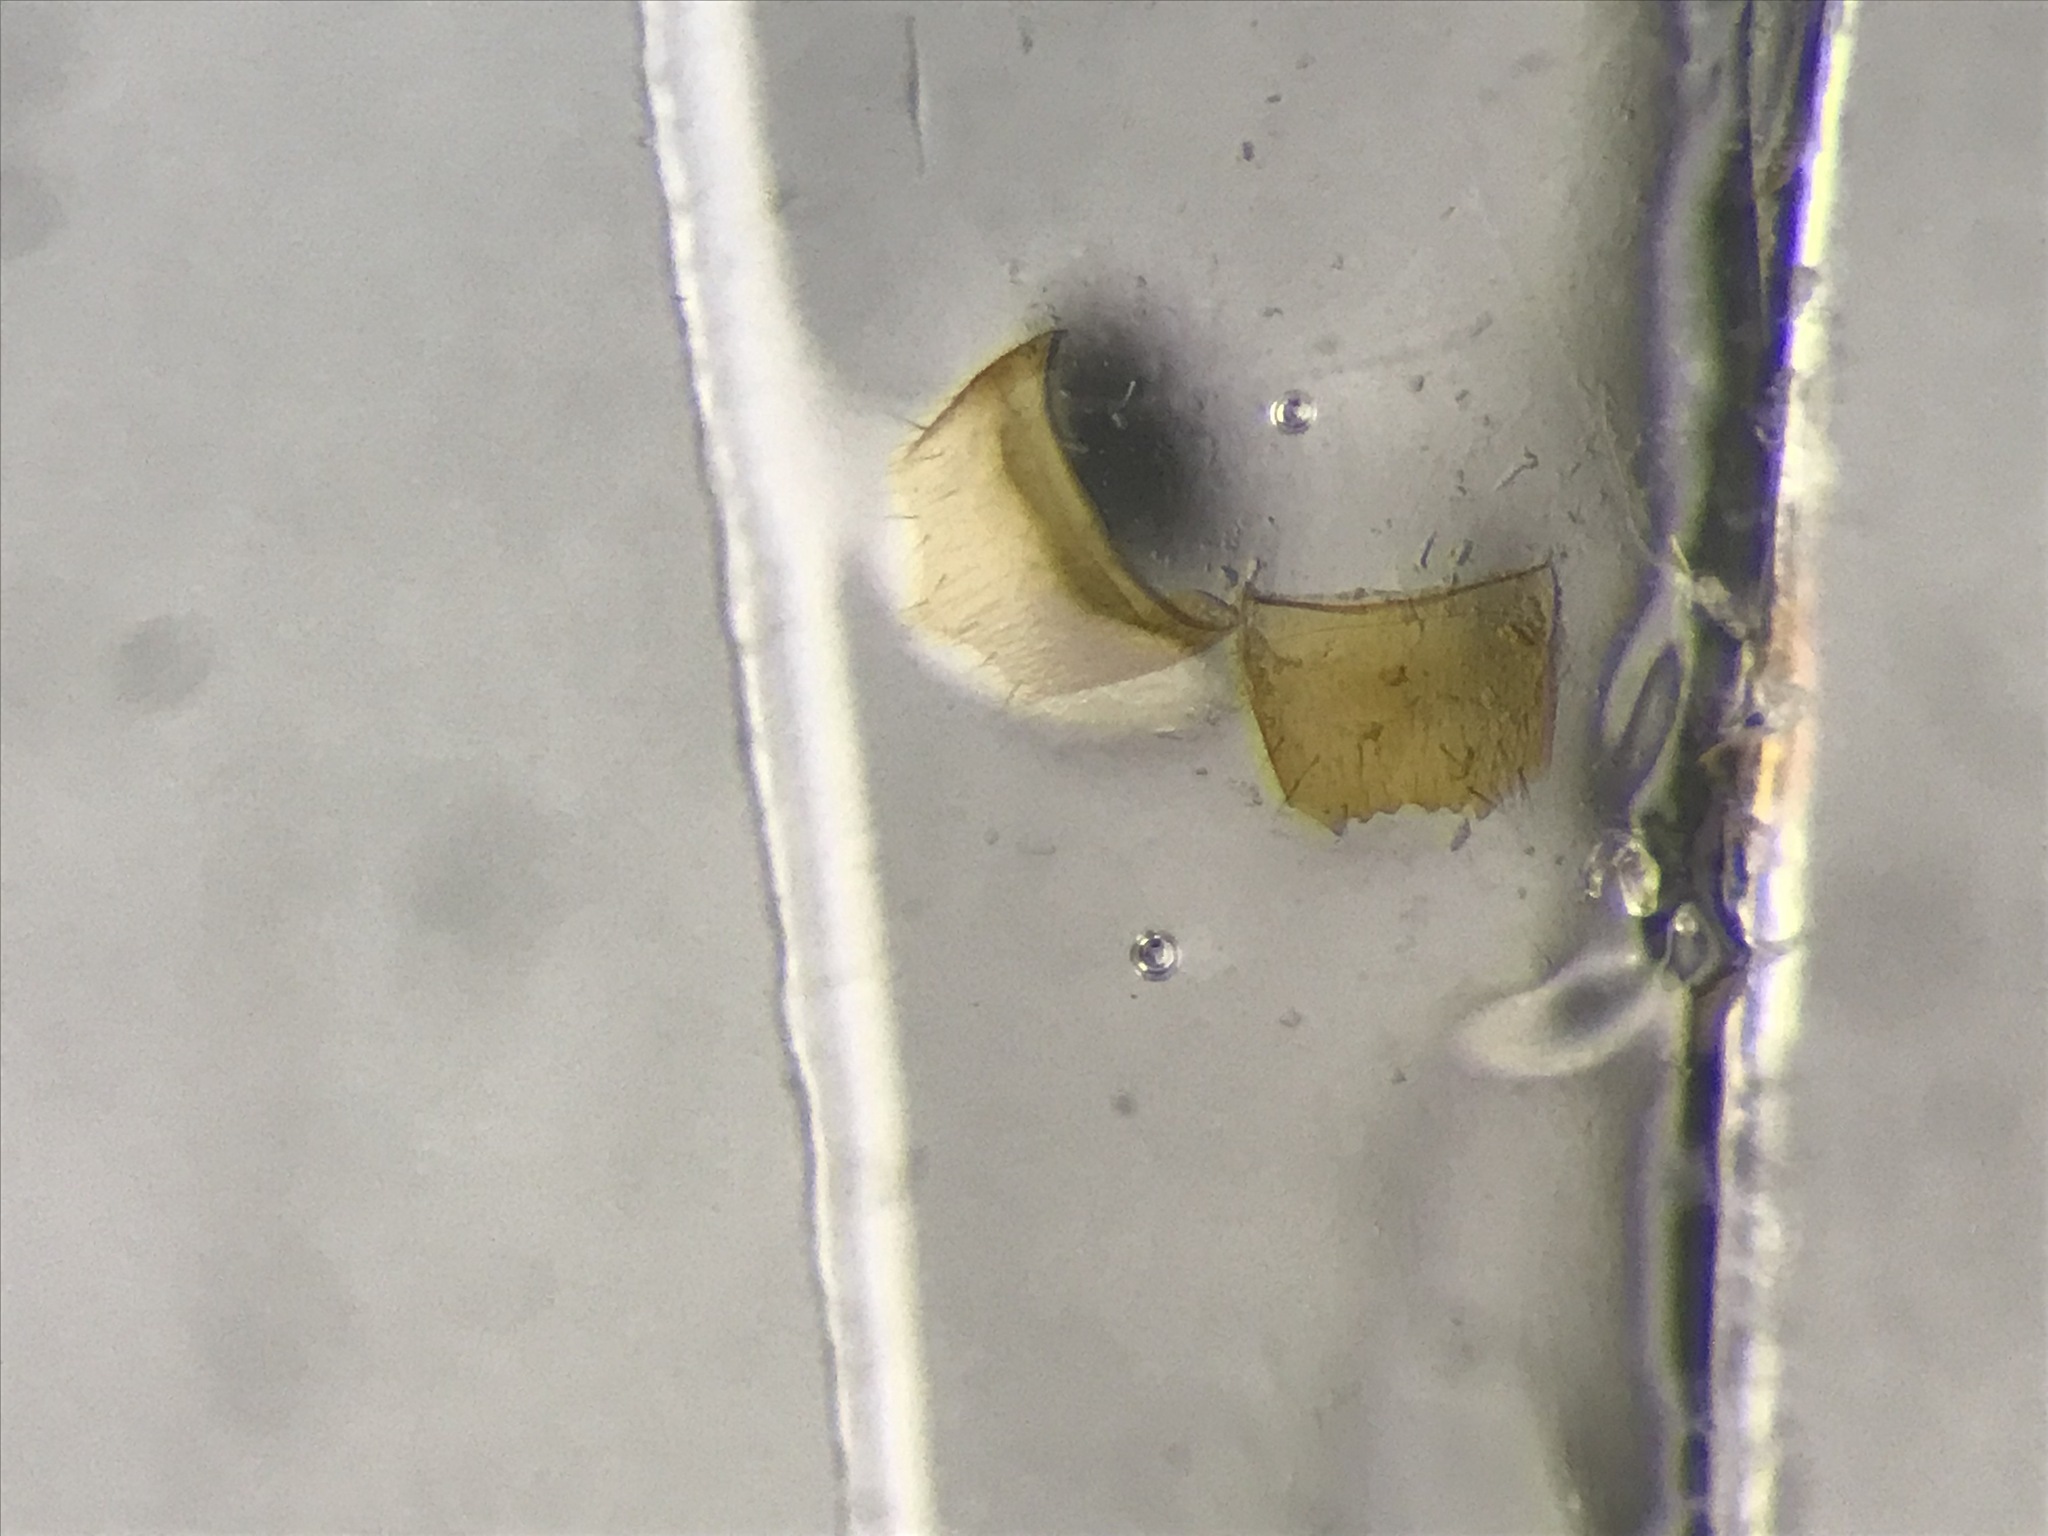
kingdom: Animalia
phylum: Arthropoda
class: Insecta
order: Coleoptera
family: Staphylinidae
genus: Silusida
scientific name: Silusida marginella
